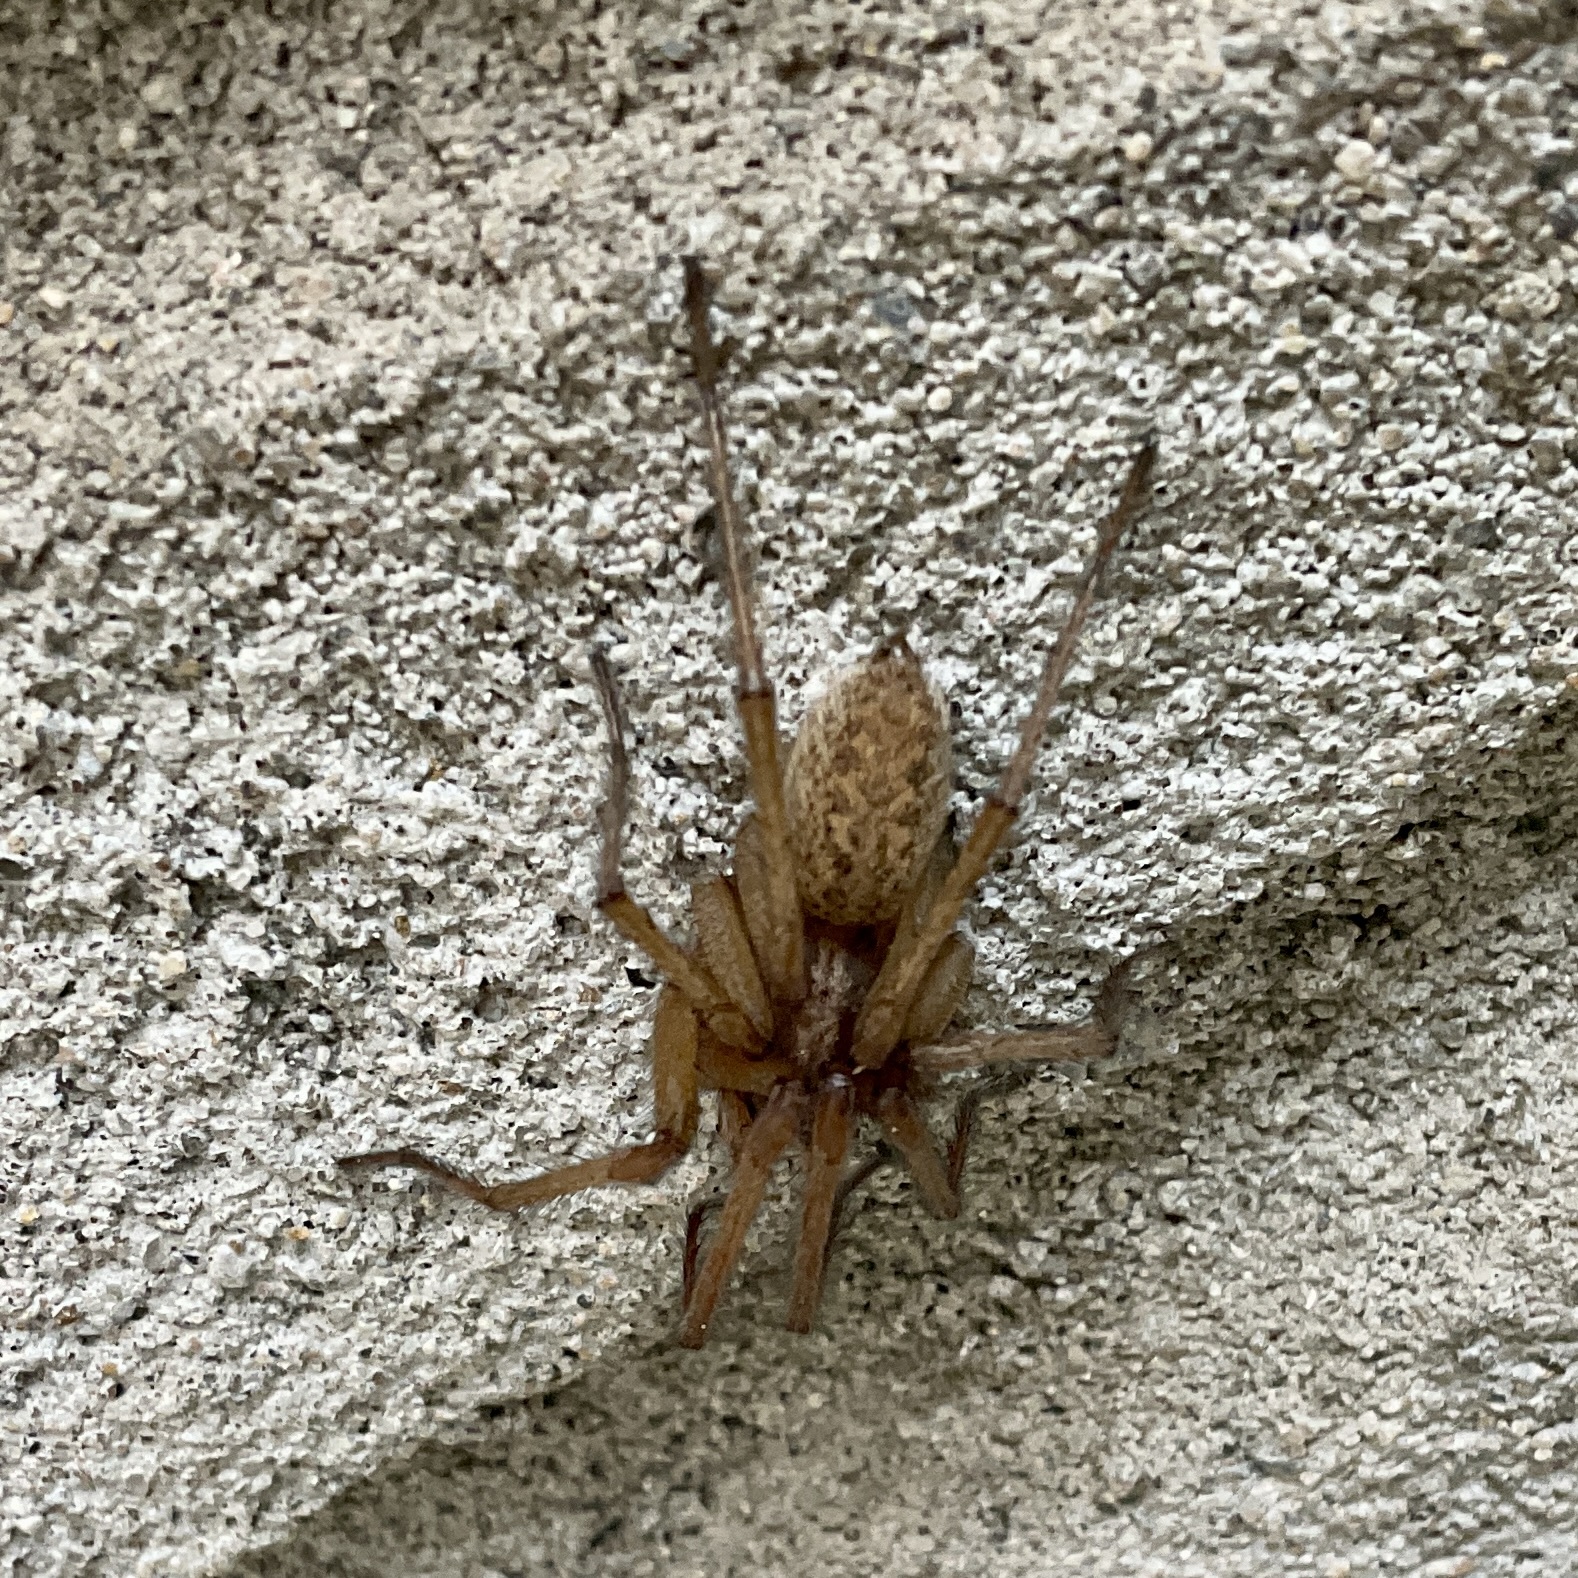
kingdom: Animalia
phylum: Arthropoda
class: Arachnida
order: Araneae
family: Agelenidae
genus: Eratigena
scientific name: Eratigena agrestis
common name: Hobo spider
